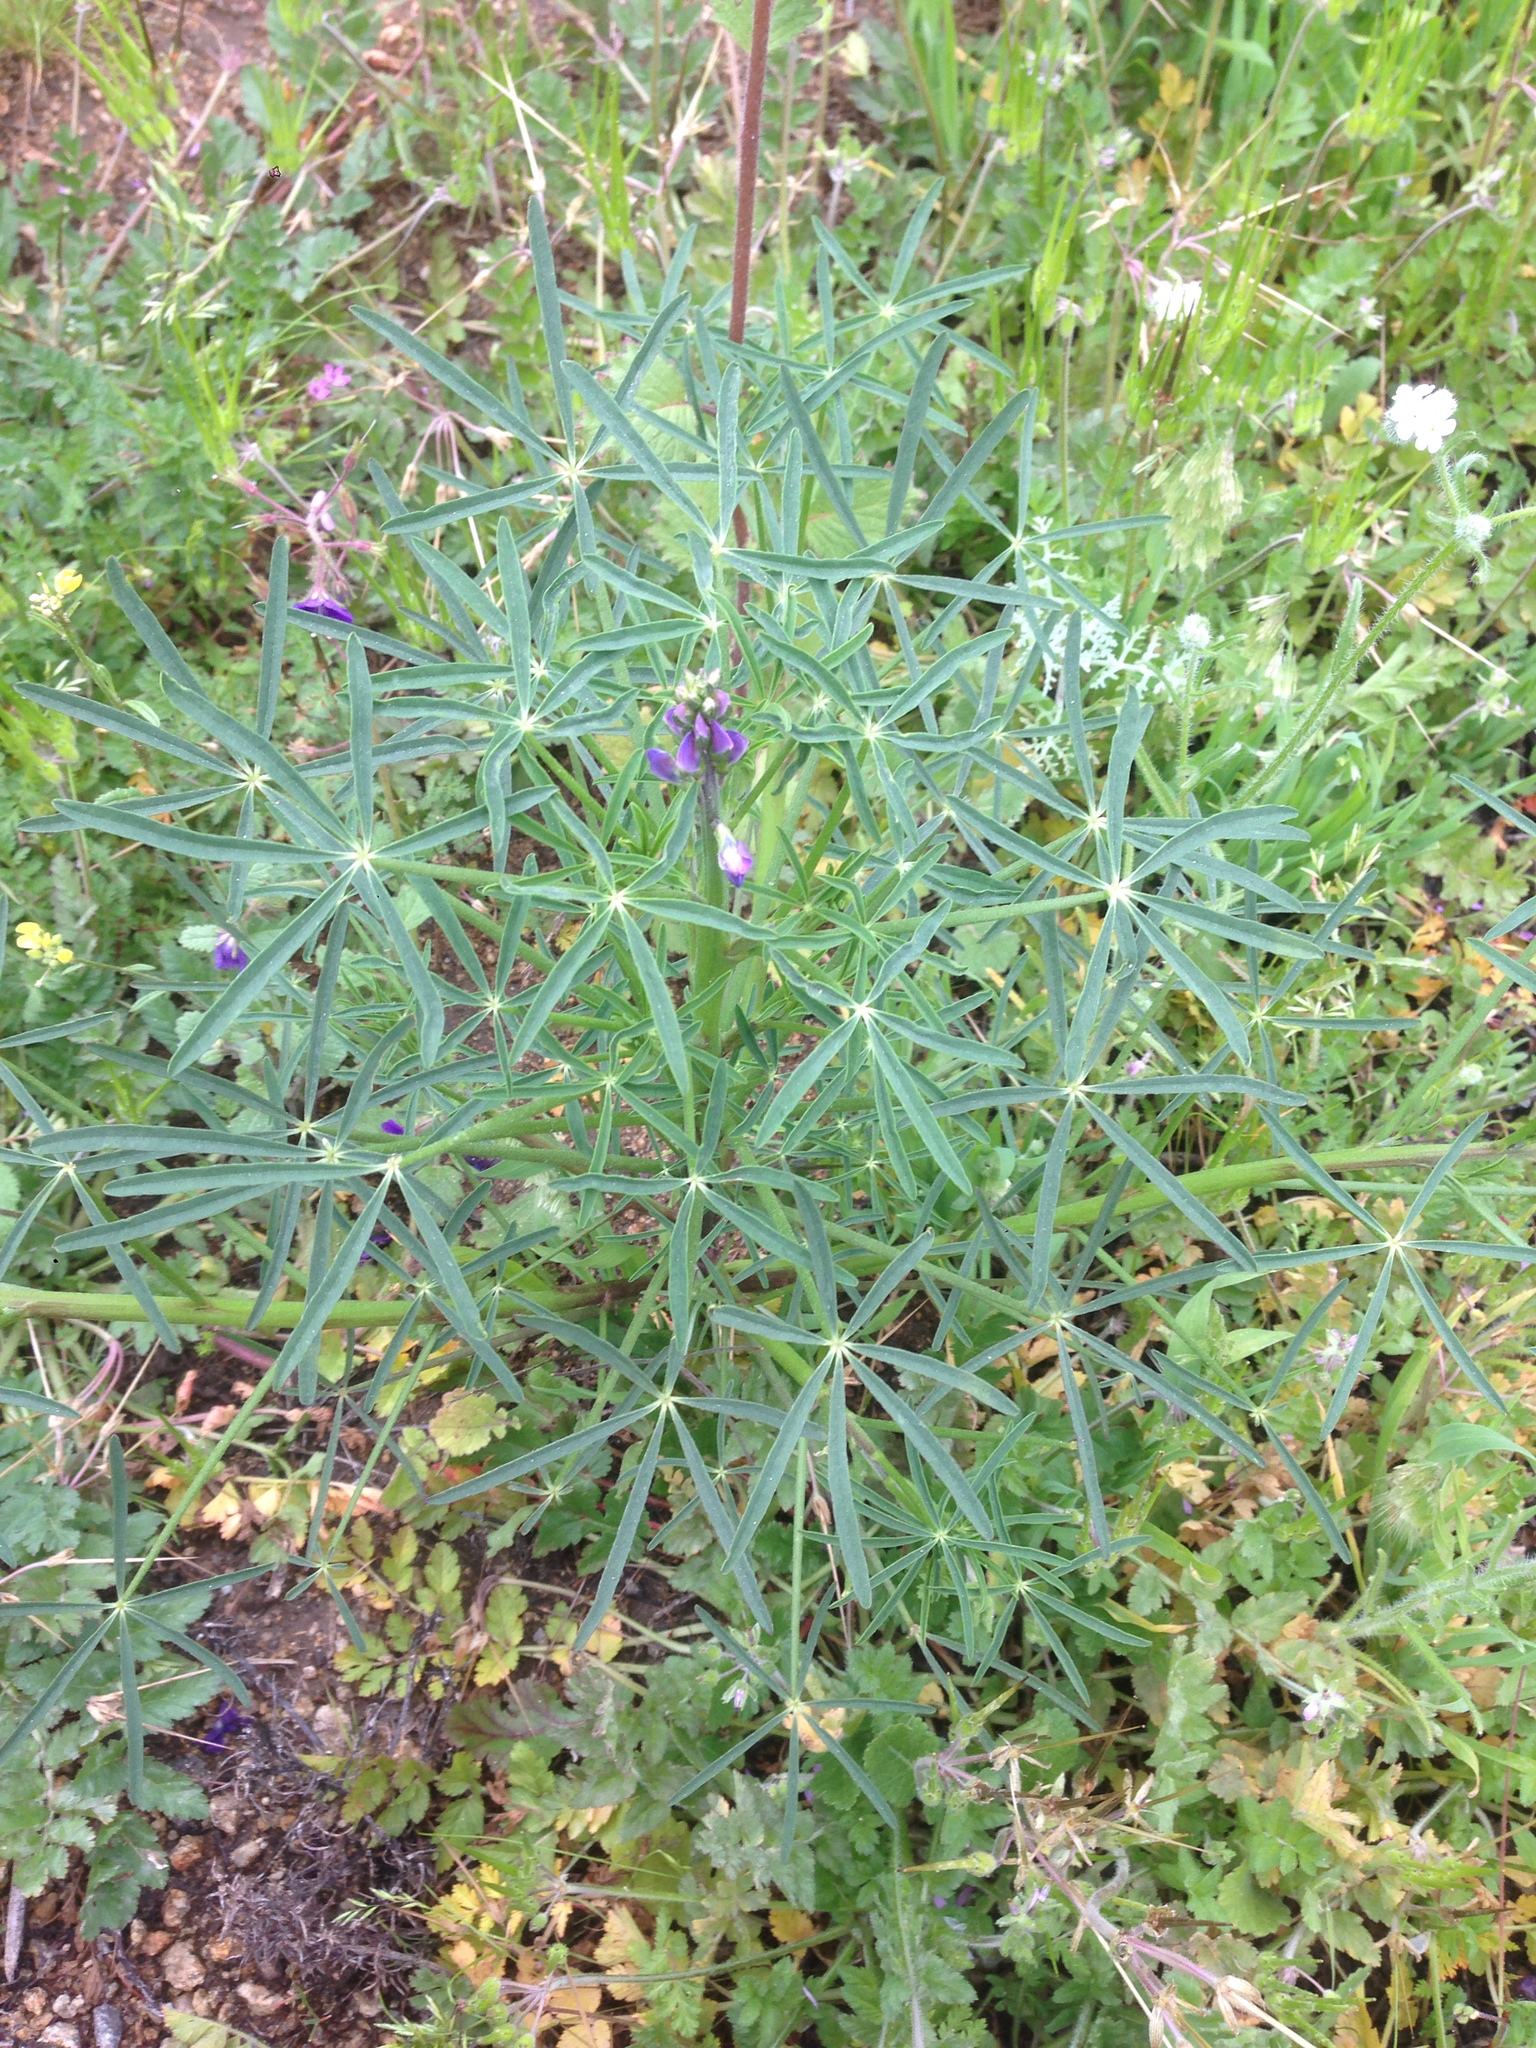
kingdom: Plantae
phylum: Tracheophyta
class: Magnoliopsida
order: Fabales
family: Fabaceae
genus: Lupinus
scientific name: Lupinus truncatus
